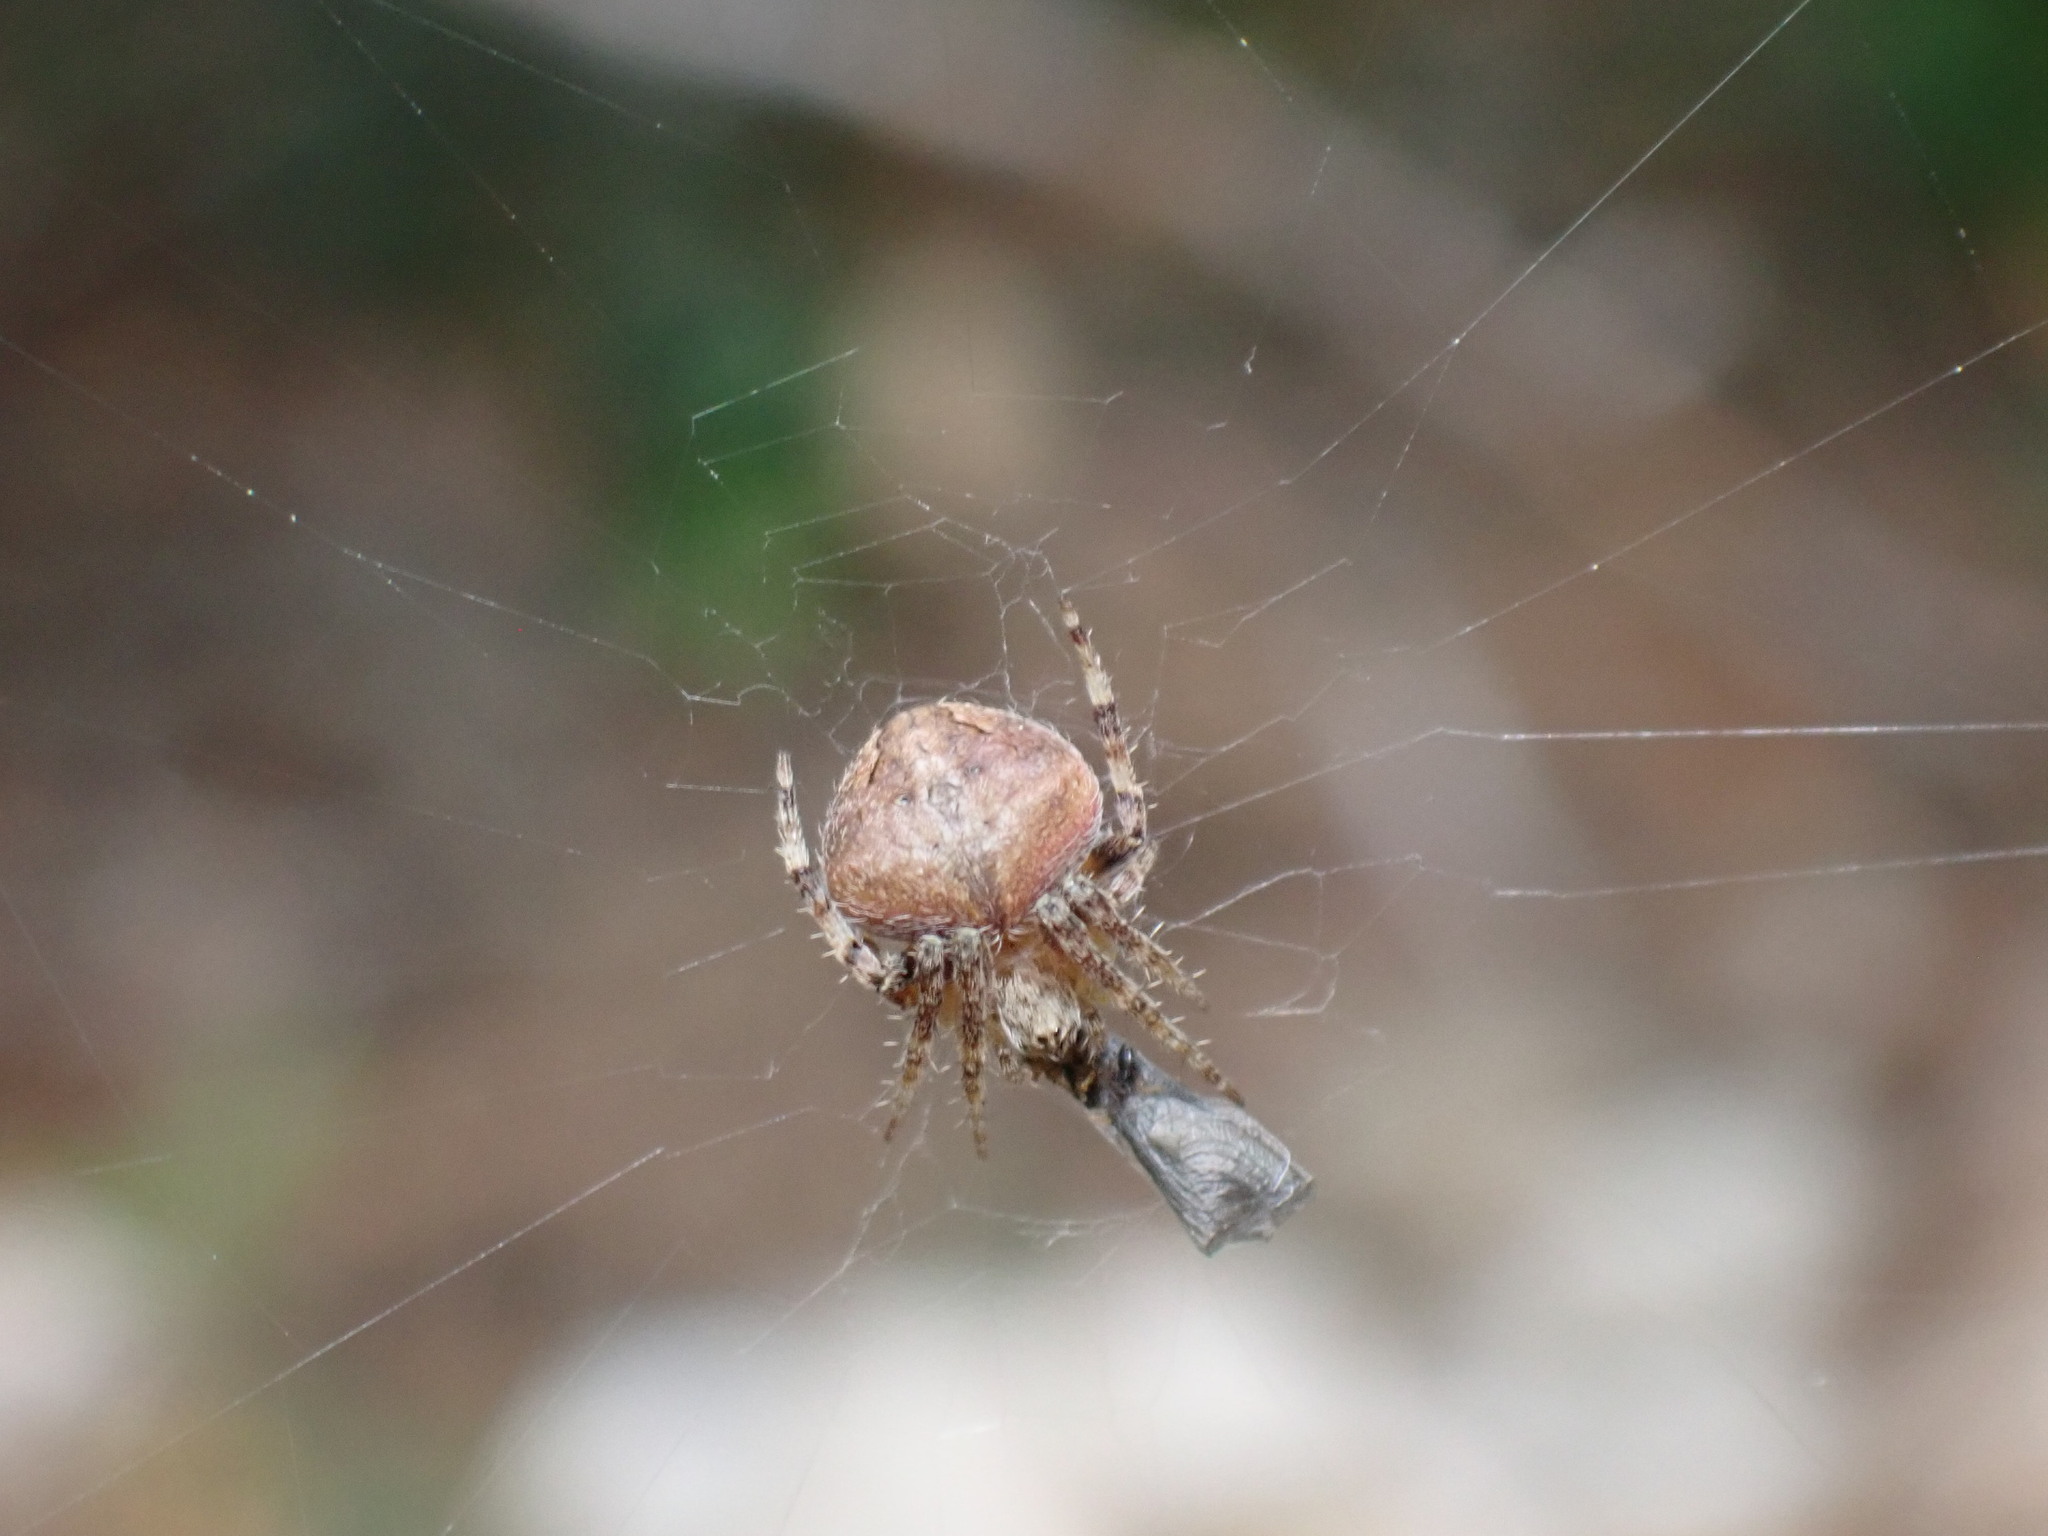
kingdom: Animalia
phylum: Arthropoda
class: Arachnida
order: Araneae
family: Araneidae
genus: Neoscona
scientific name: Neoscona subfusca
